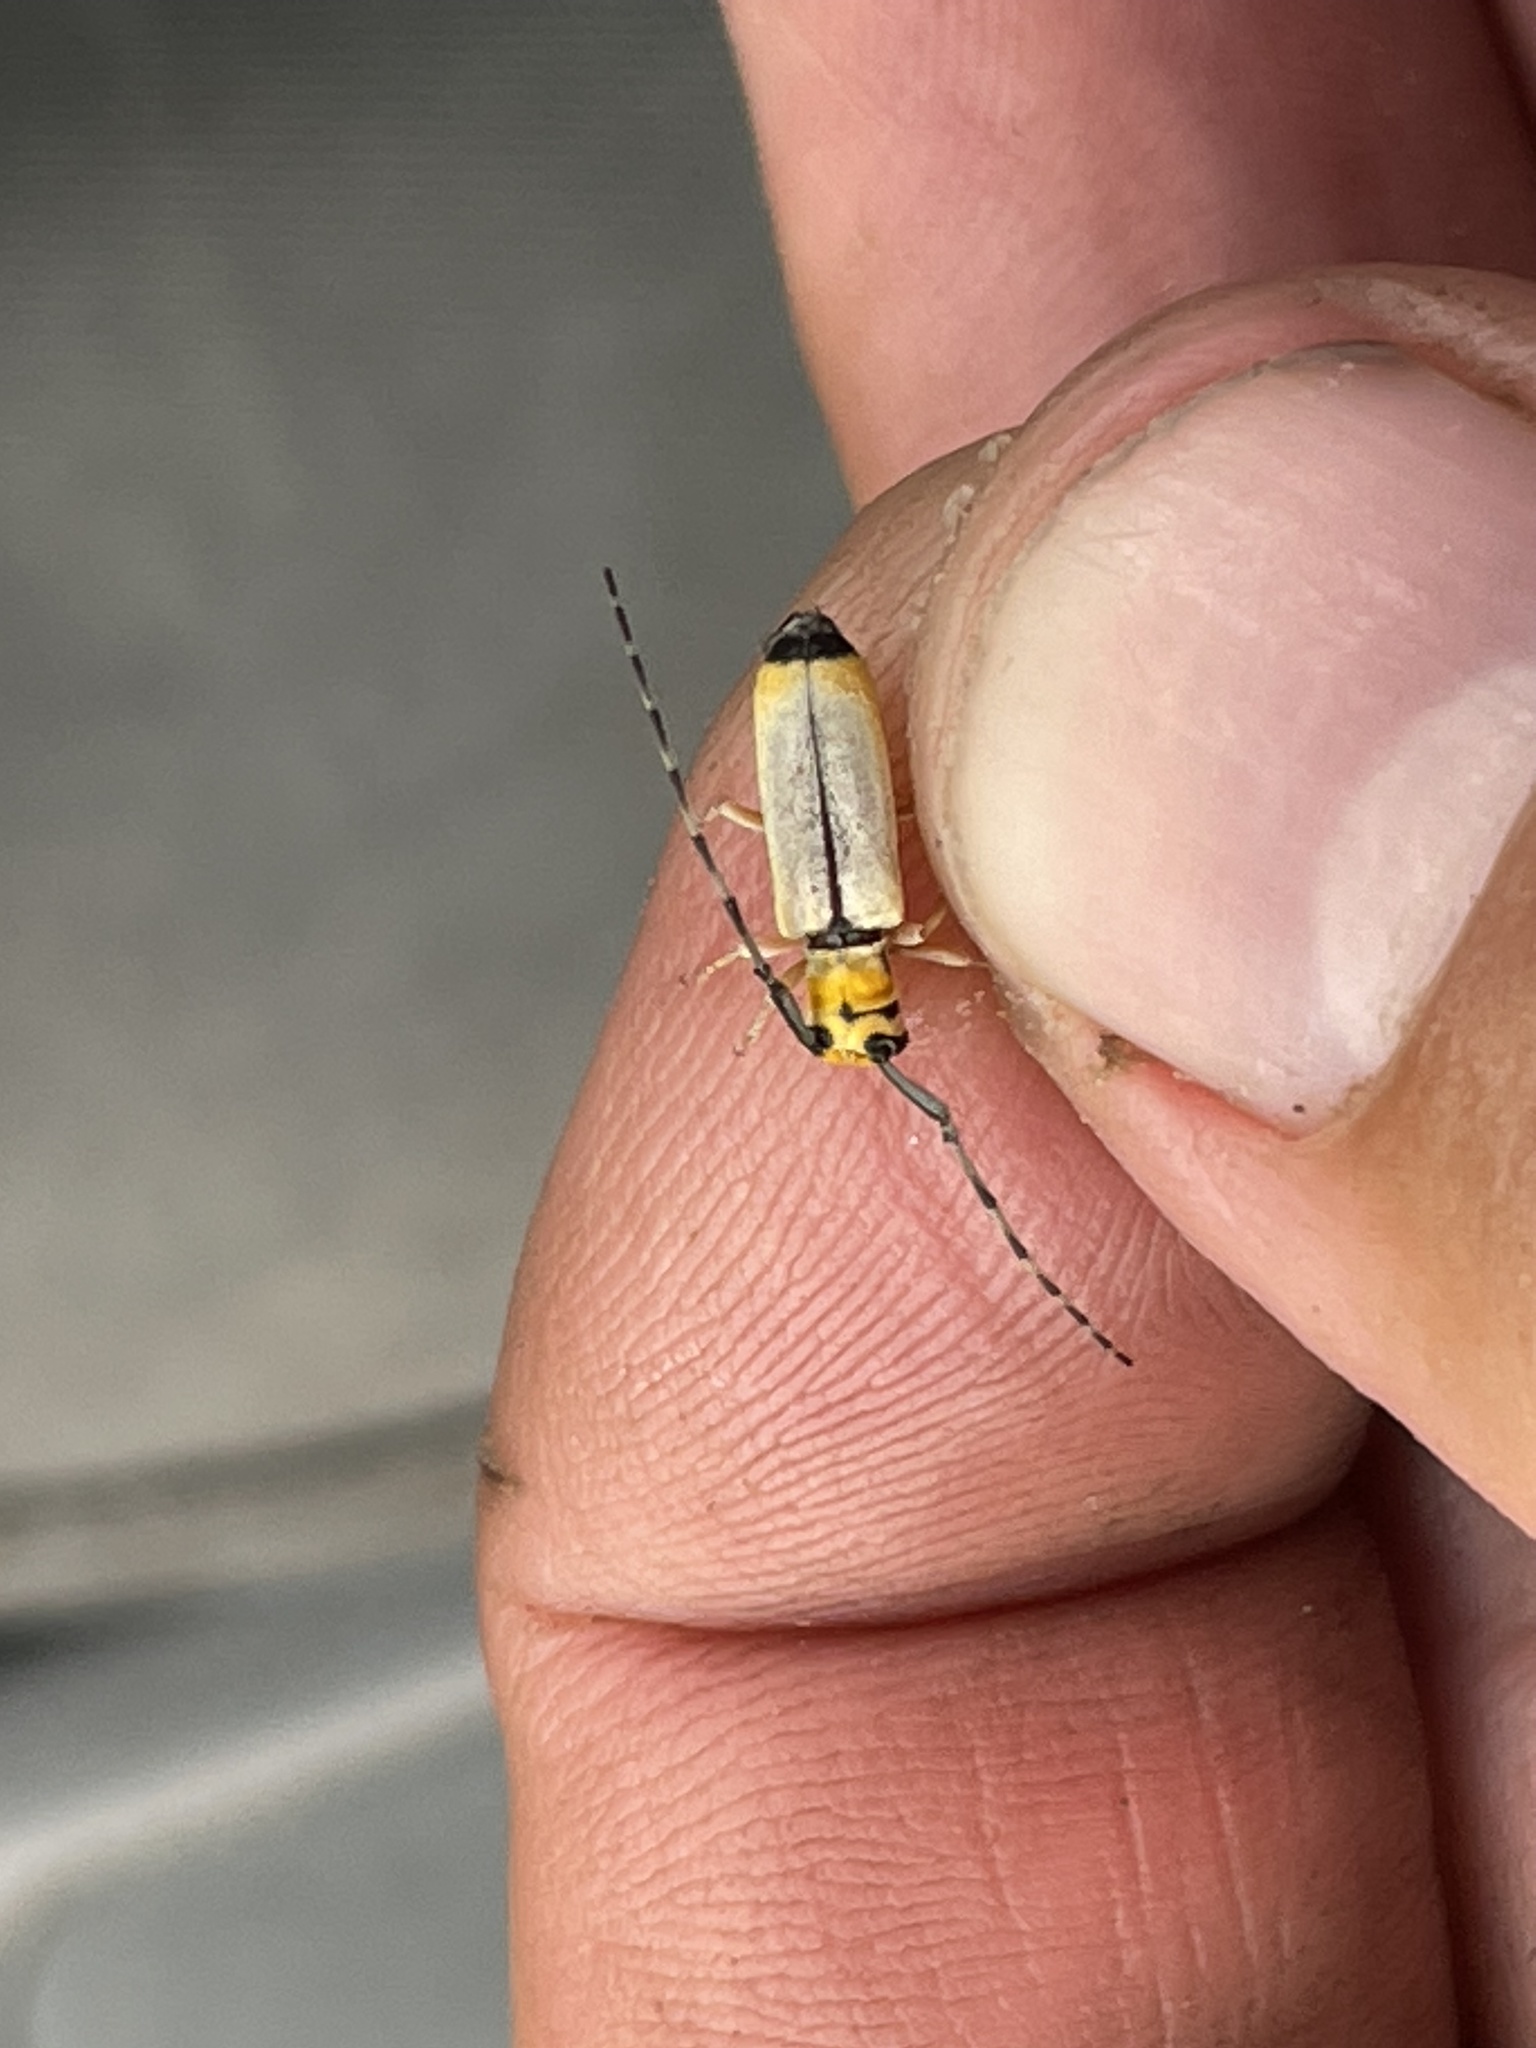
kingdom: Animalia
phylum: Arthropoda
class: Insecta
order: Coleoptera
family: Cerambycidae
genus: Eunidia
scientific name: Eunidia sulphurea
